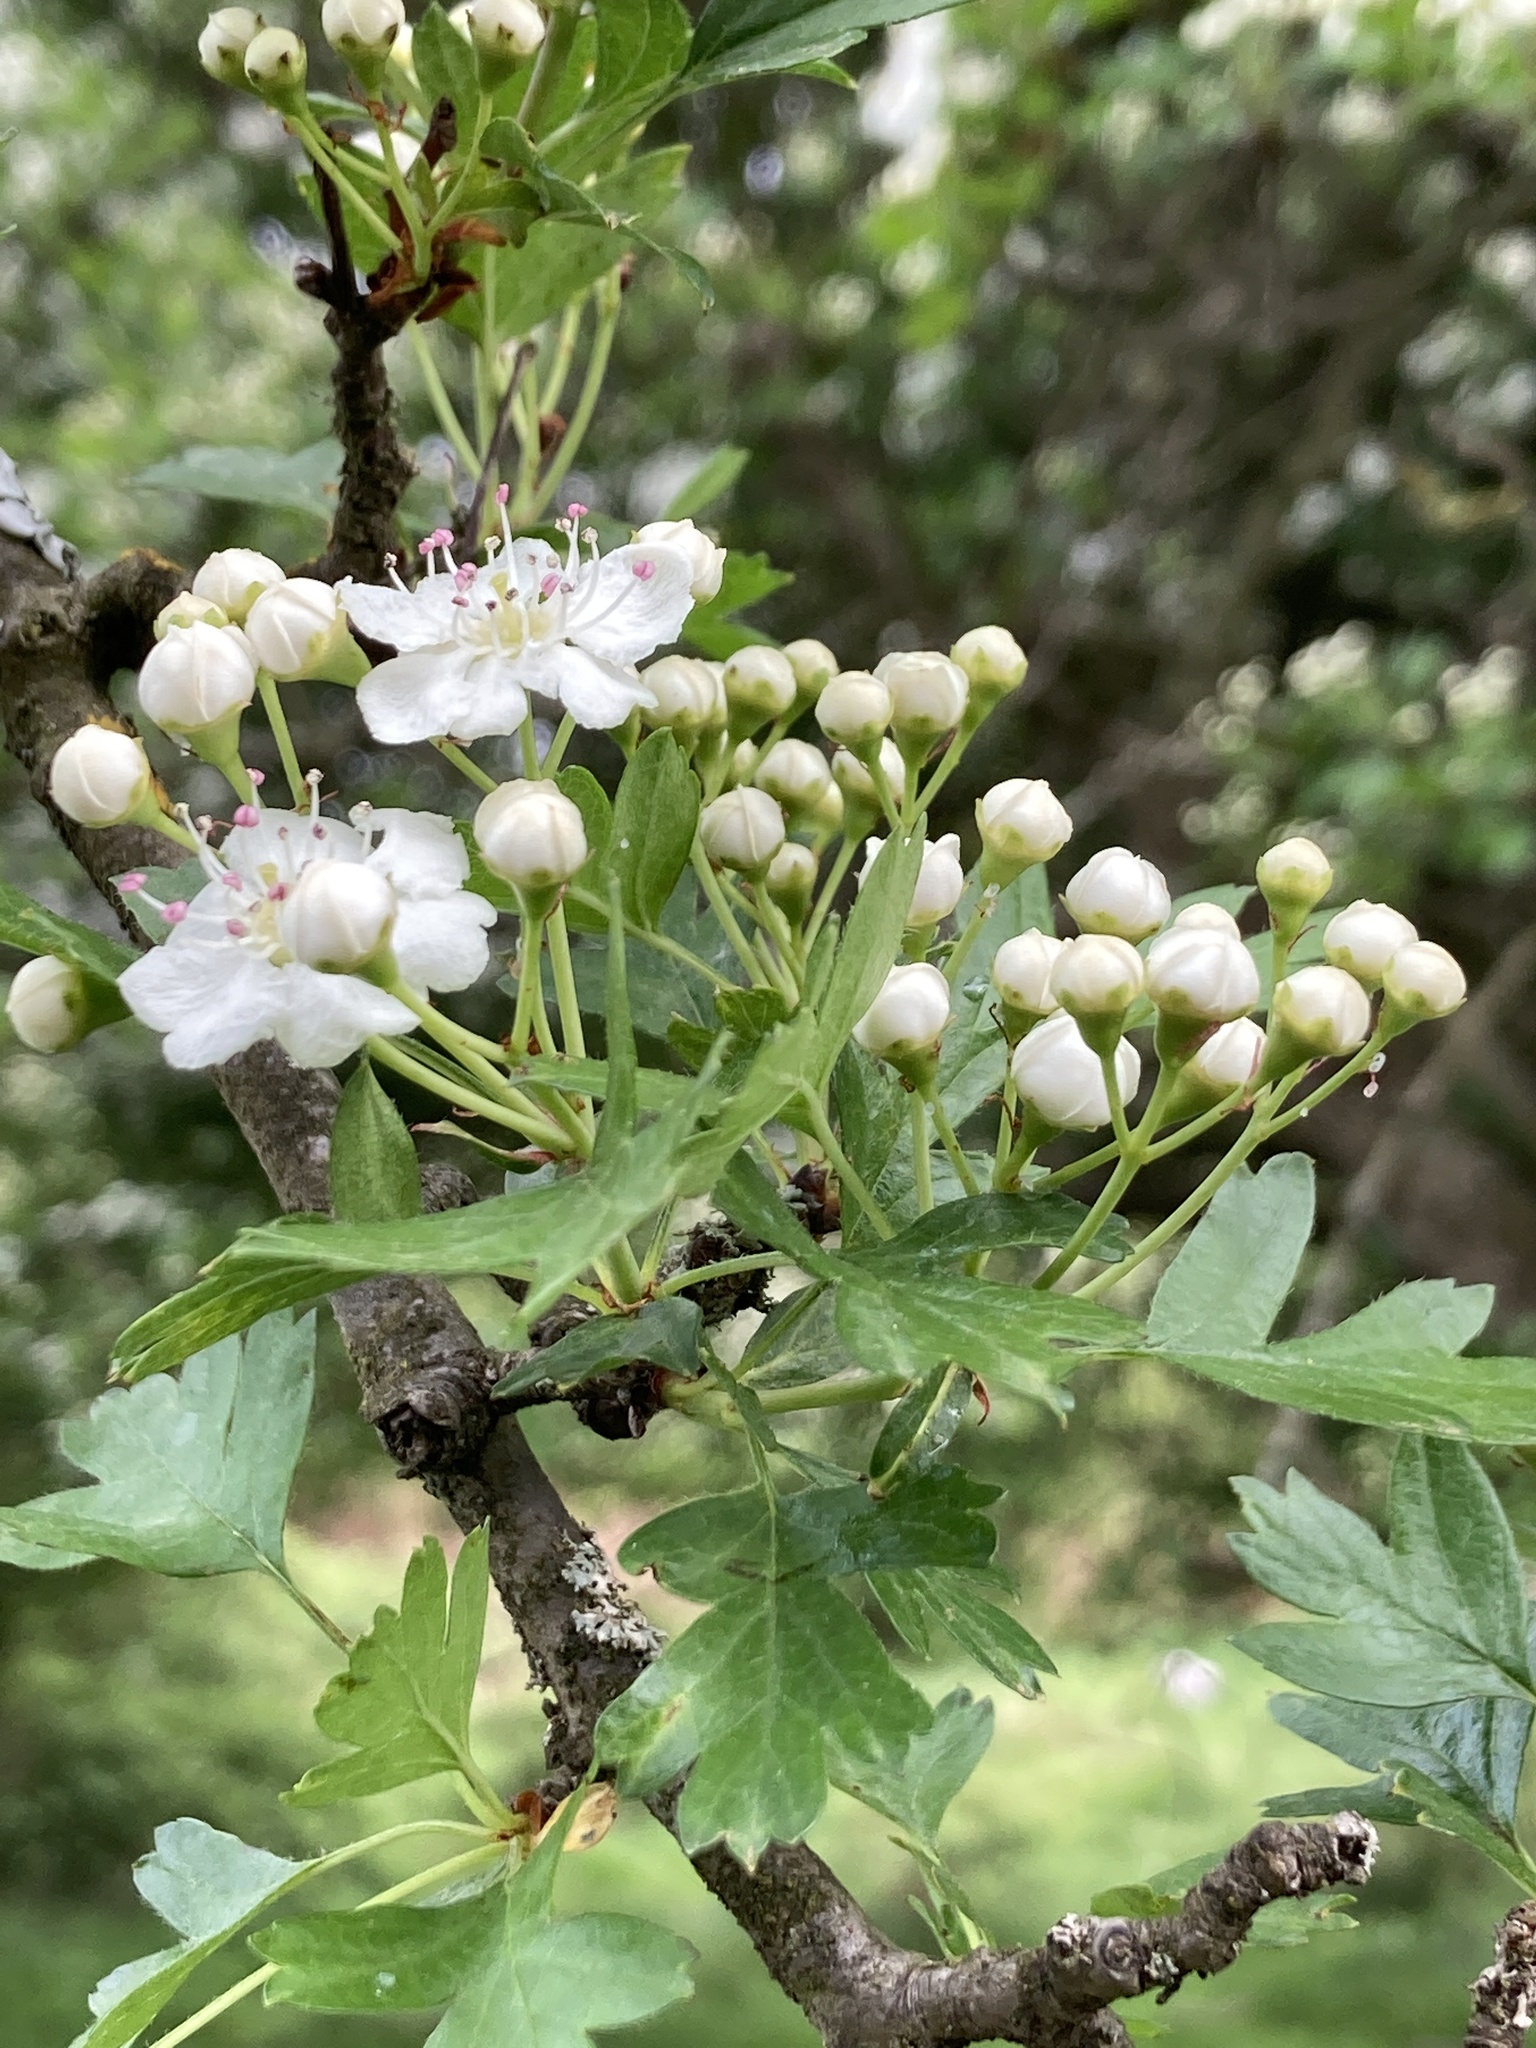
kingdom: Plantae
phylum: Tracheophyta
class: Magnoliopsida
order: Rosales
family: Rosaceae
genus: Crataegus
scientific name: Crataegus monogyna
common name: Hawthorn
